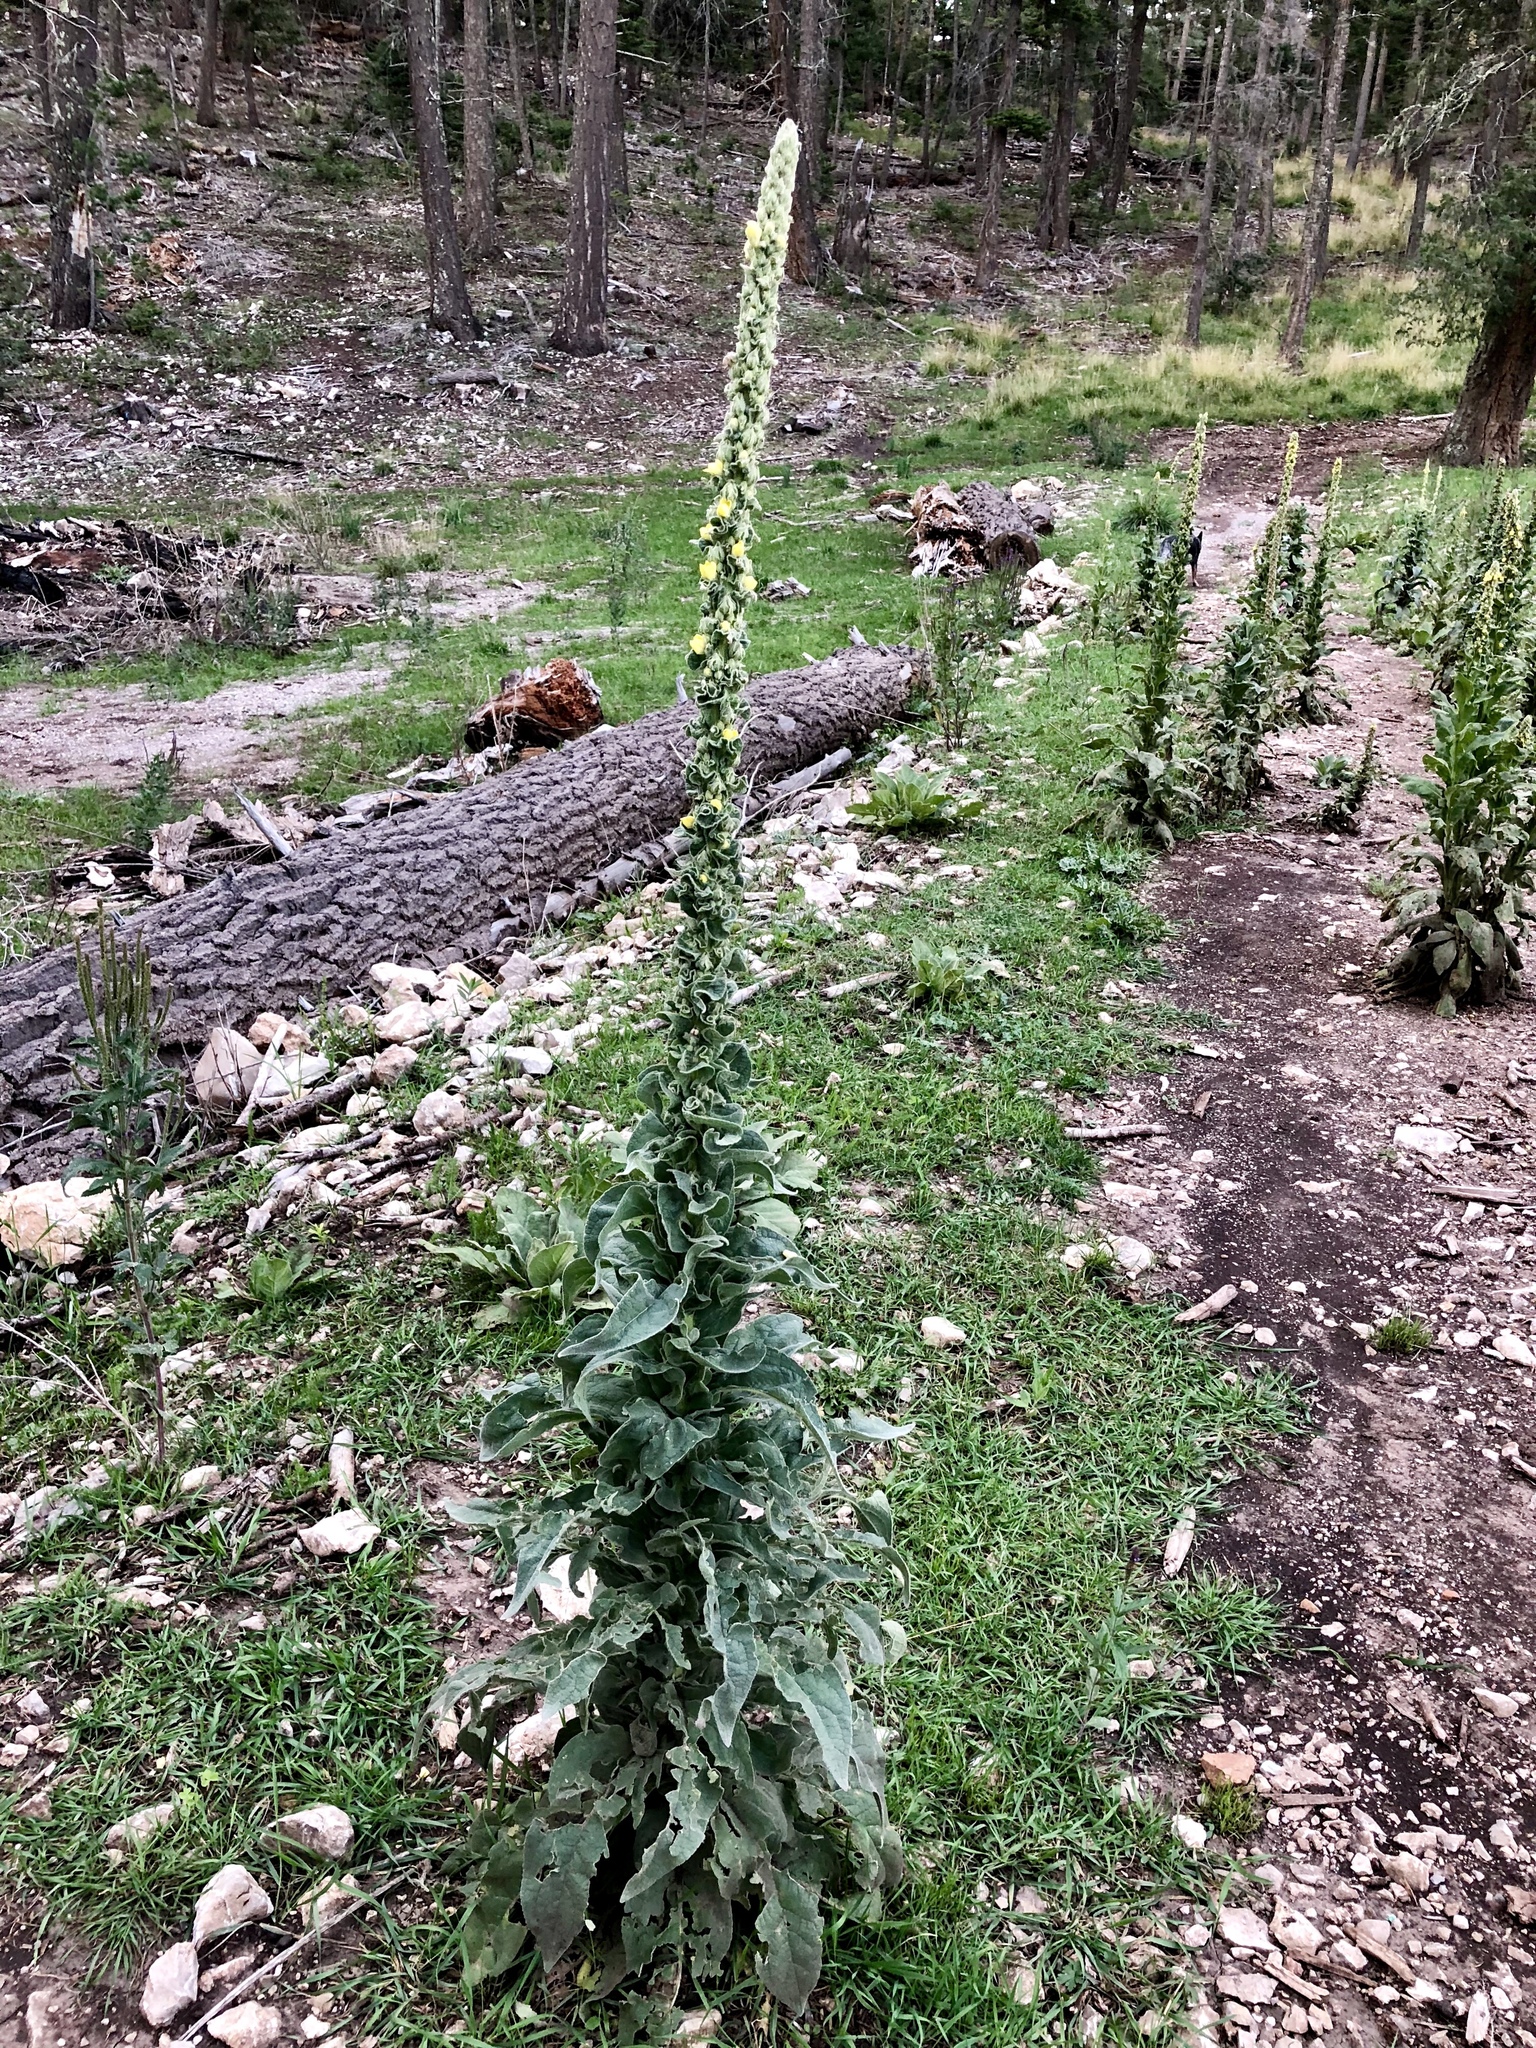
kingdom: Plantae
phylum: Tracheophyta
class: Magnoliopsida
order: Lamiales
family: Scrophulariaceae
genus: Verbascum
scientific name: Verbascum thapsus
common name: Common mullein
